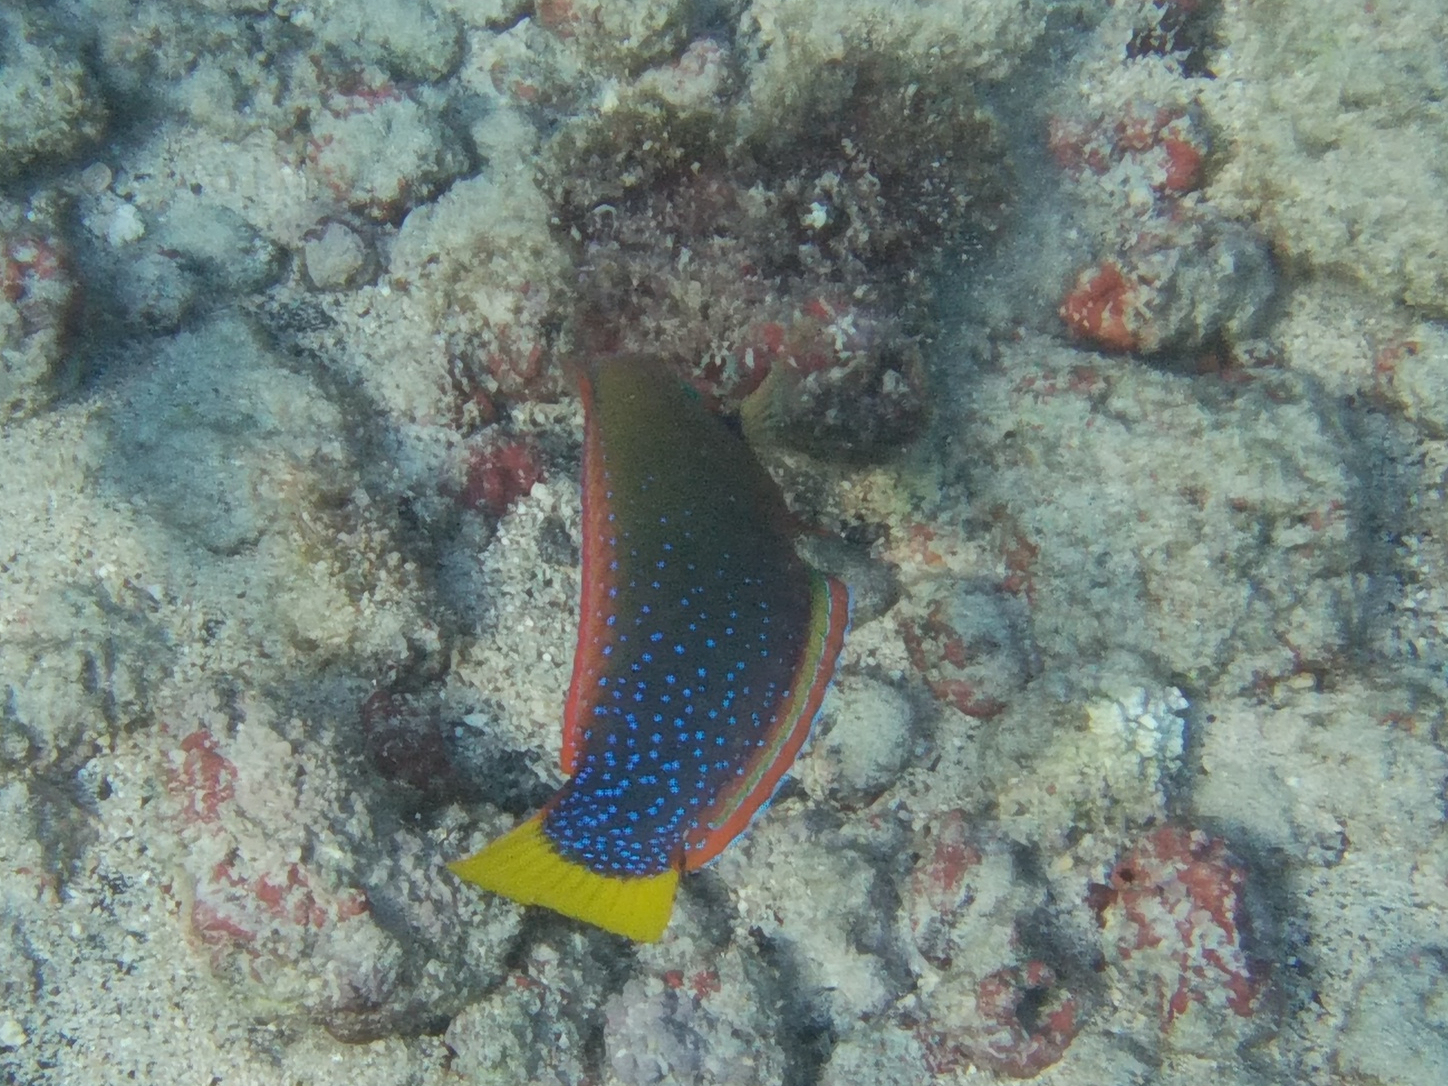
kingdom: Animalia
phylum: Chordata
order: Perciformes
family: Labridae
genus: Coris
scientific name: Coris gaimard
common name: Yellowtail coris
